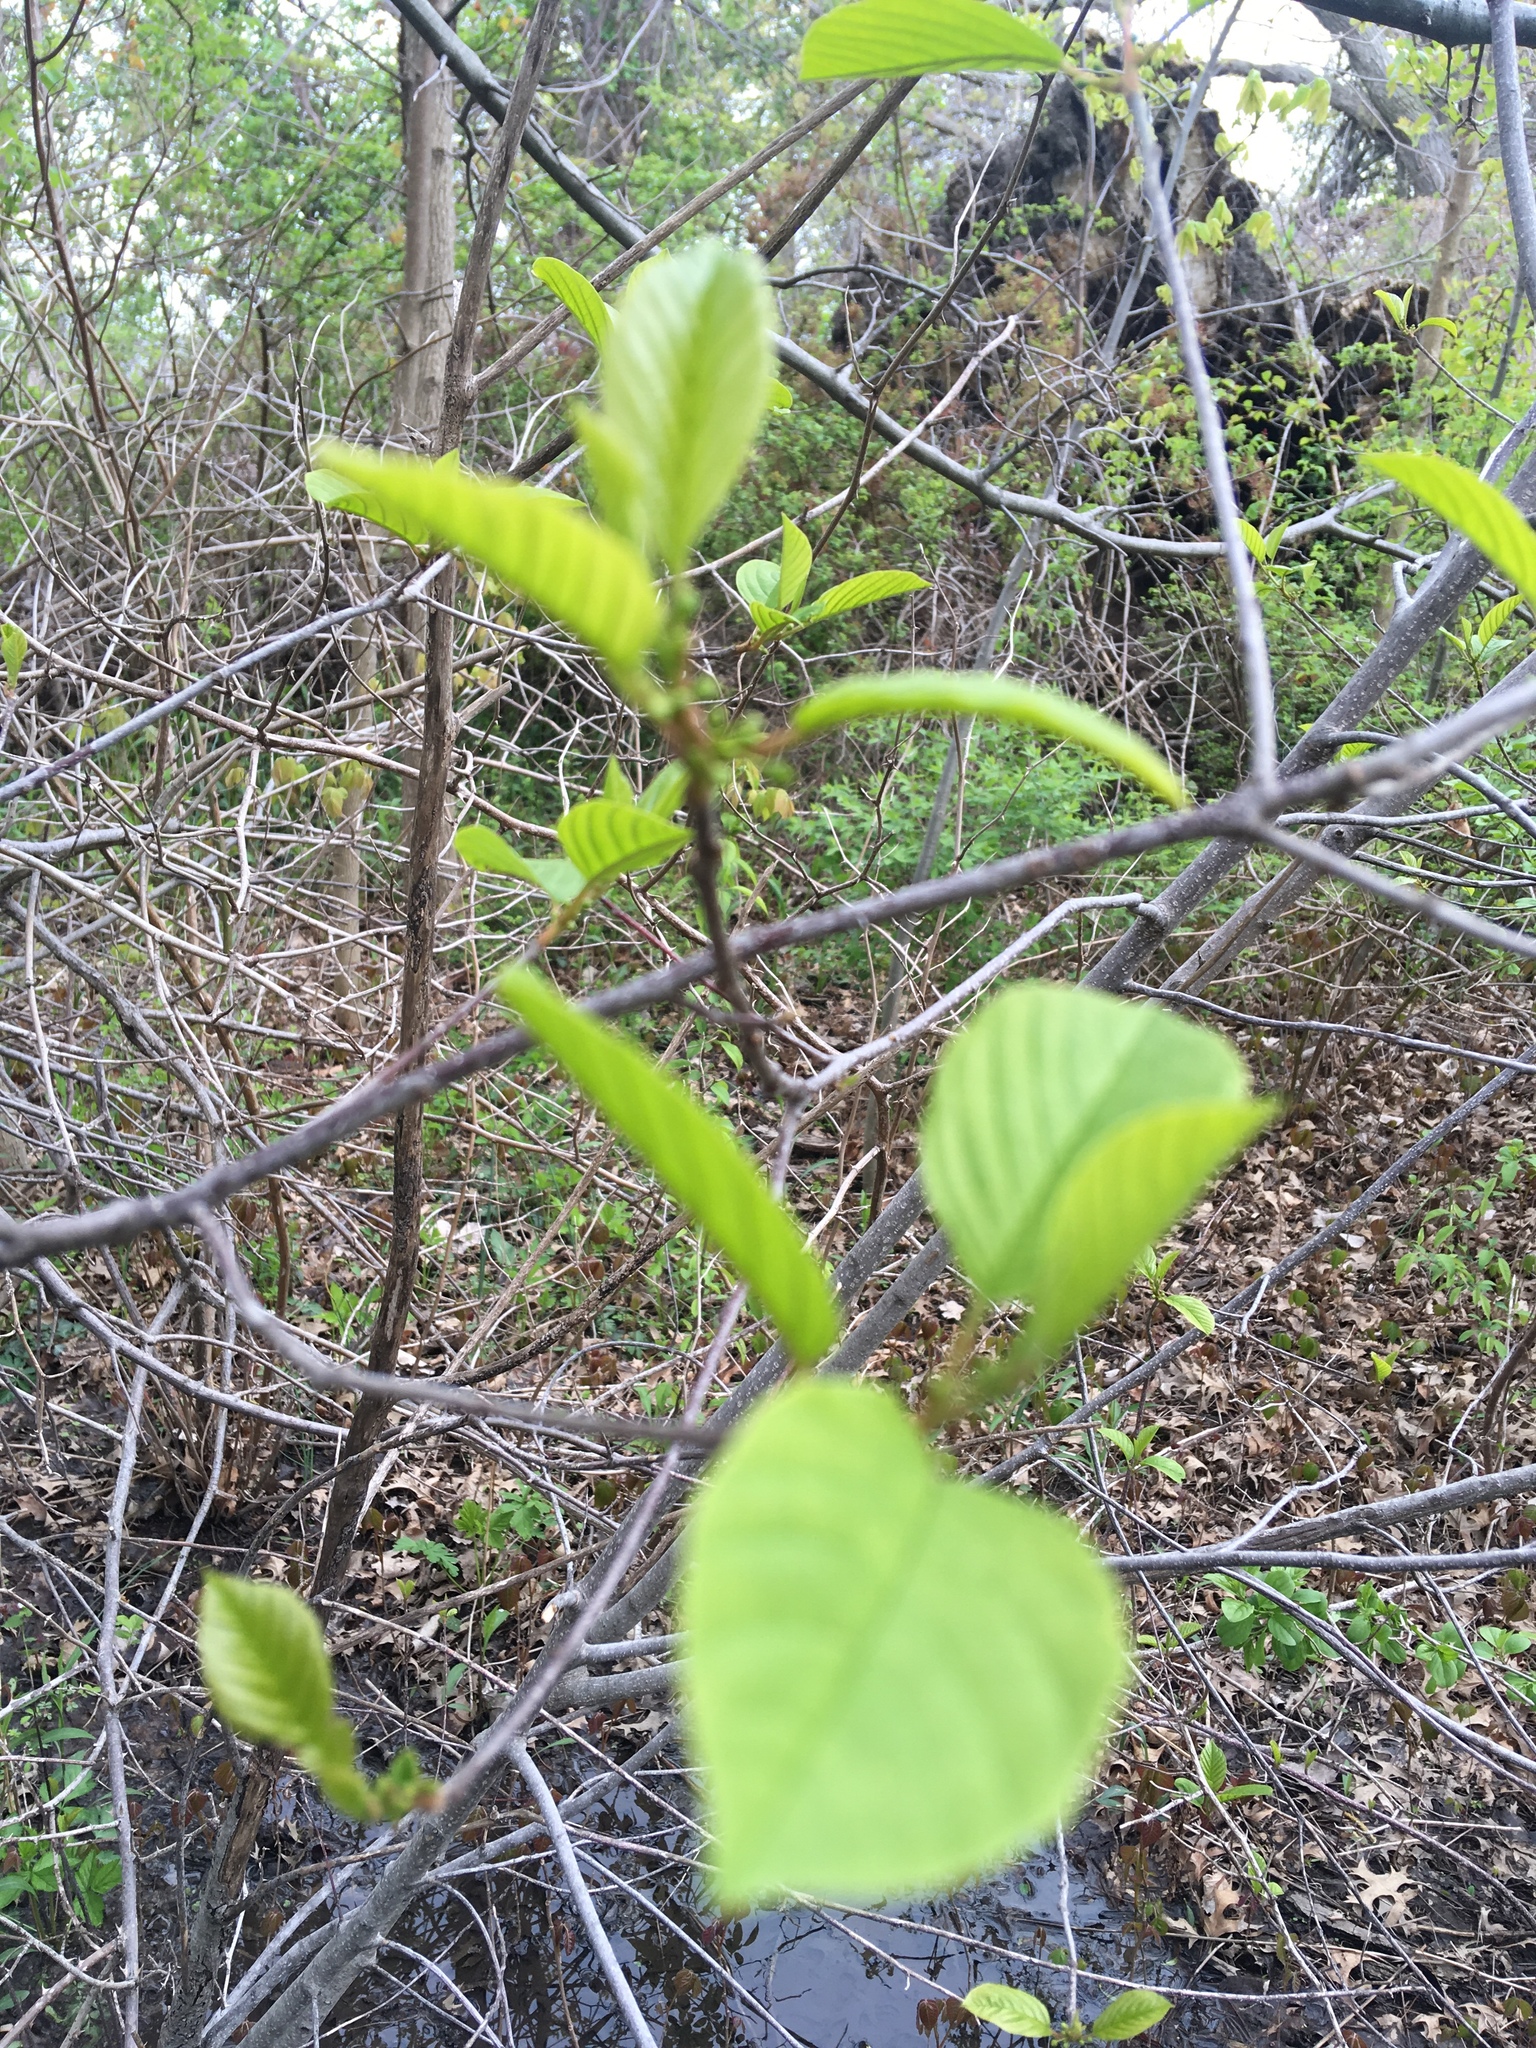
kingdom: Plantae
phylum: Tracheophyta
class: Magnoliopsida
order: Rosales
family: Rhamnaceae
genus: Frangula
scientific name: Frangula alnus
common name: Alder buckthorn
